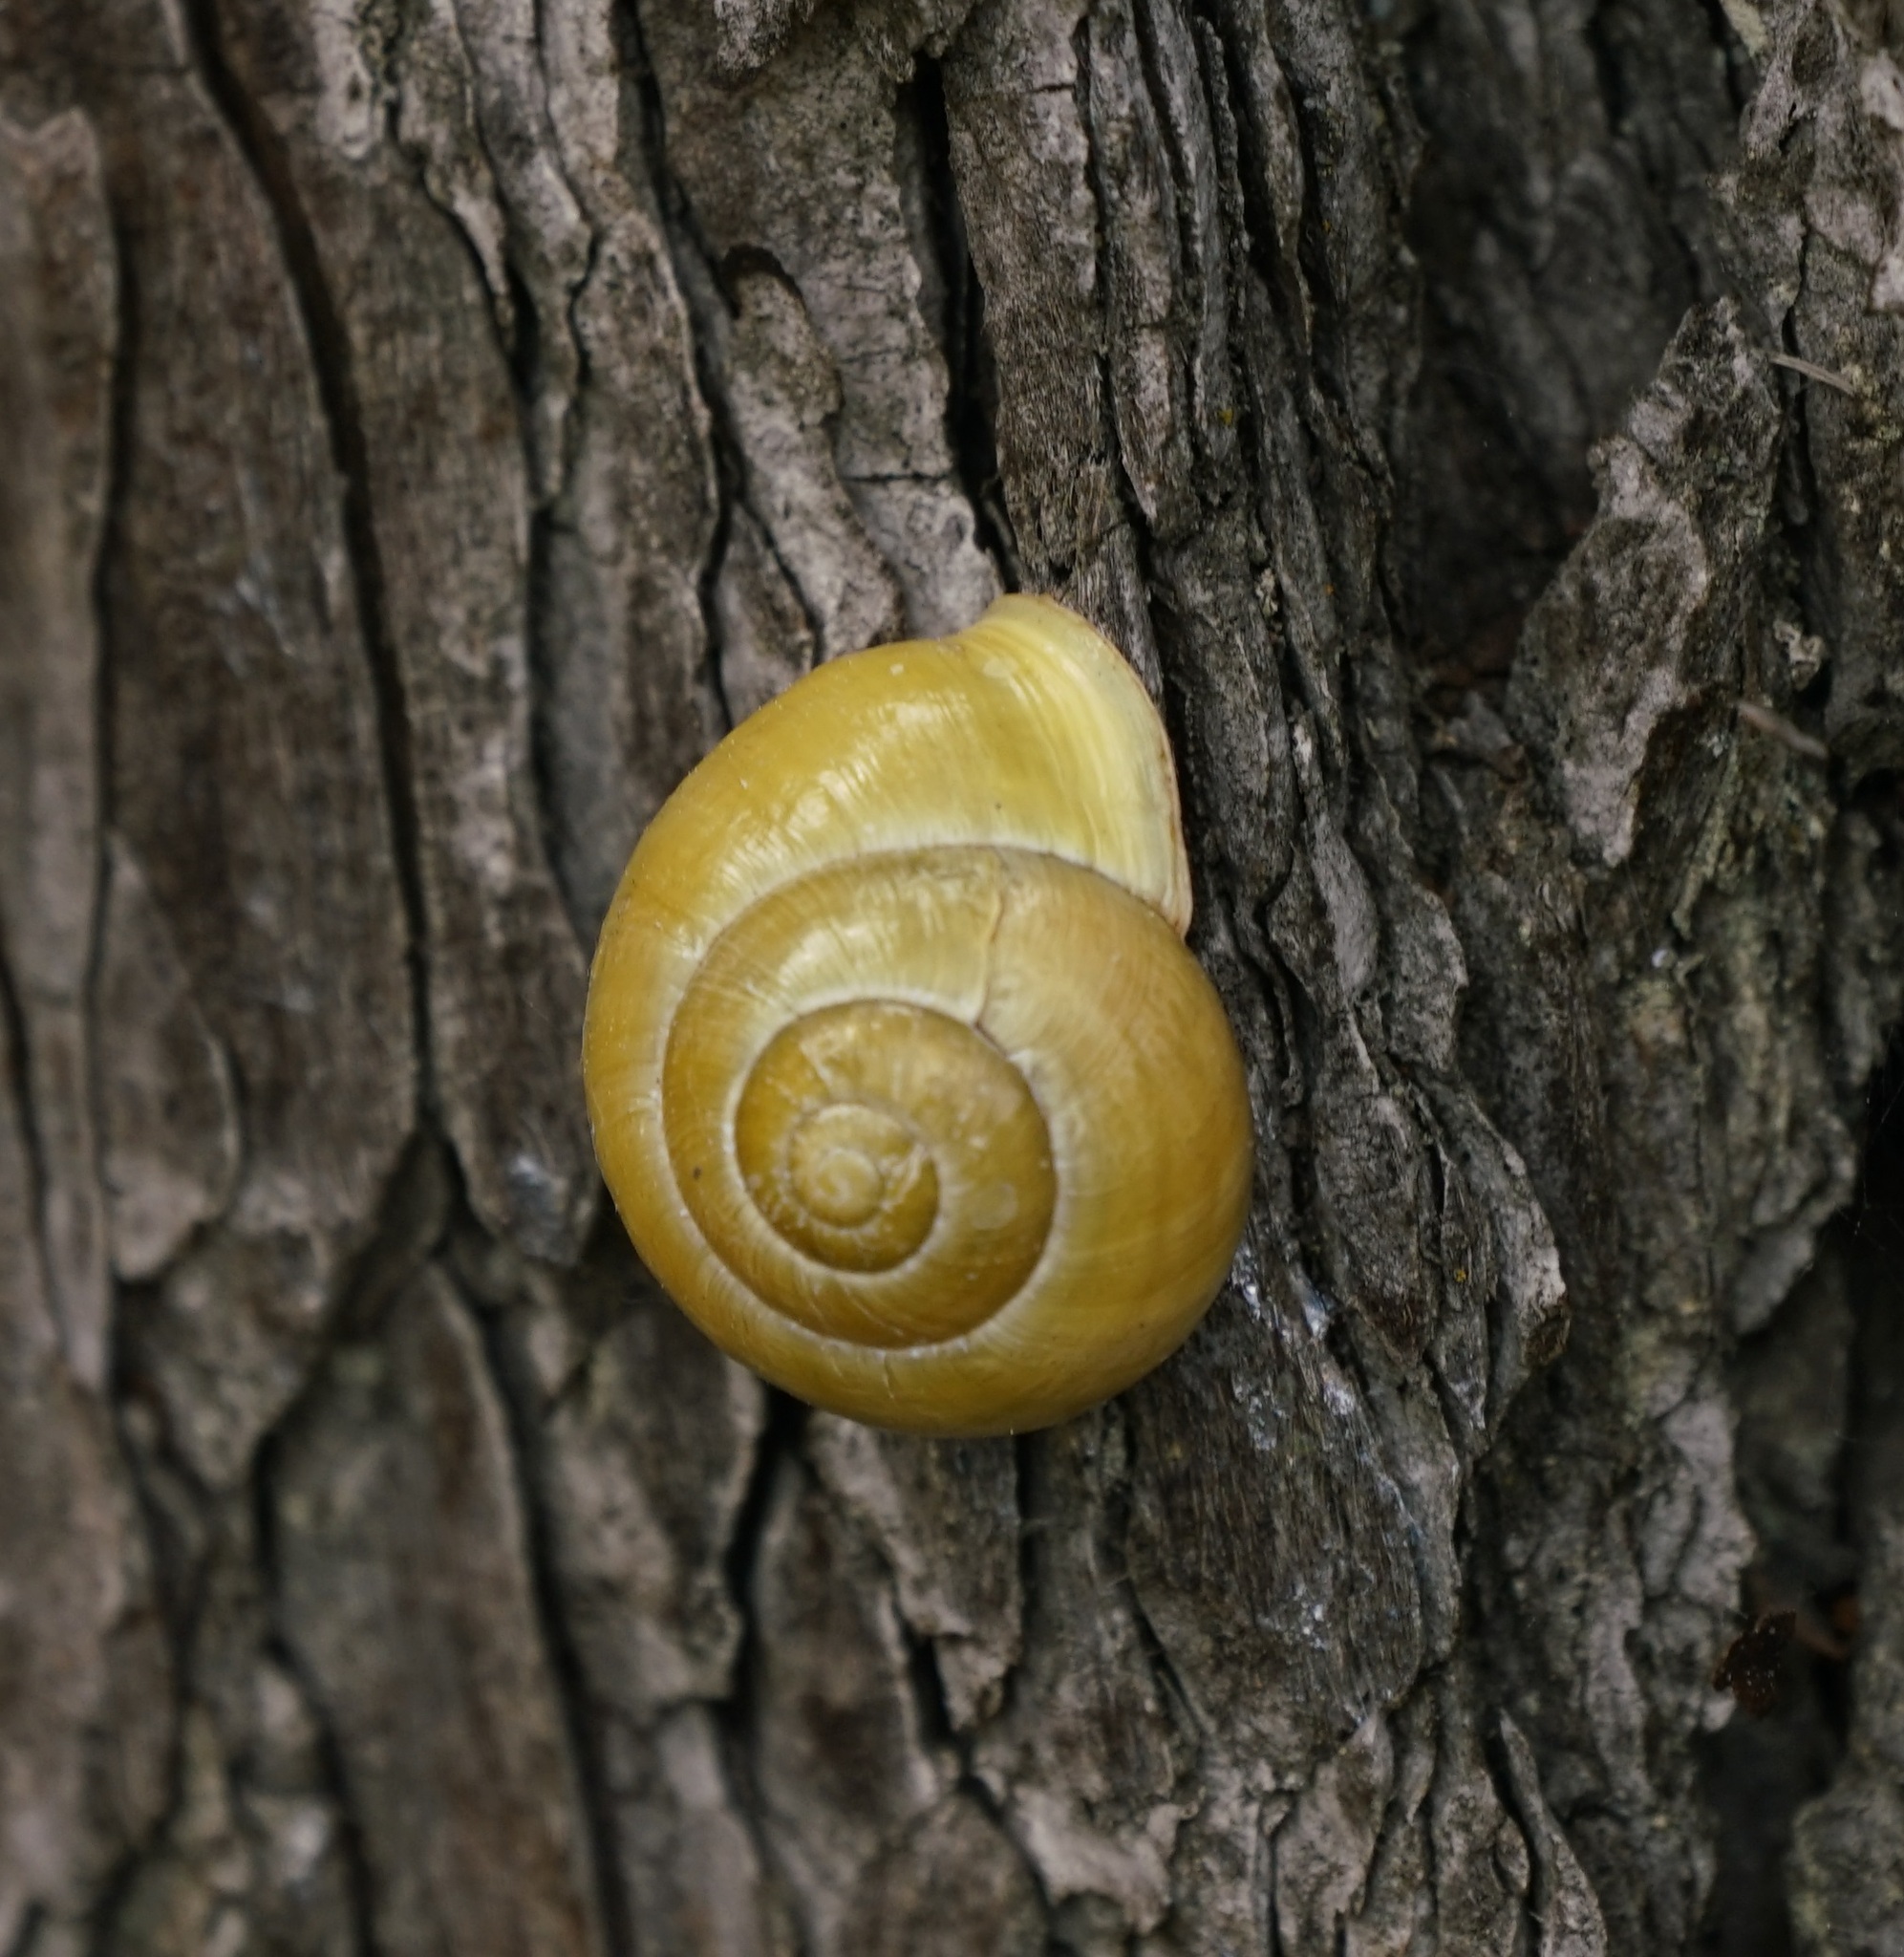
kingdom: Animalia
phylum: Mollusca
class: Gastropoda
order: Stylommatophora
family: Helicidae
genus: Cepaea
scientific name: Cepaea hortensis
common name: White-lip gardensnail
